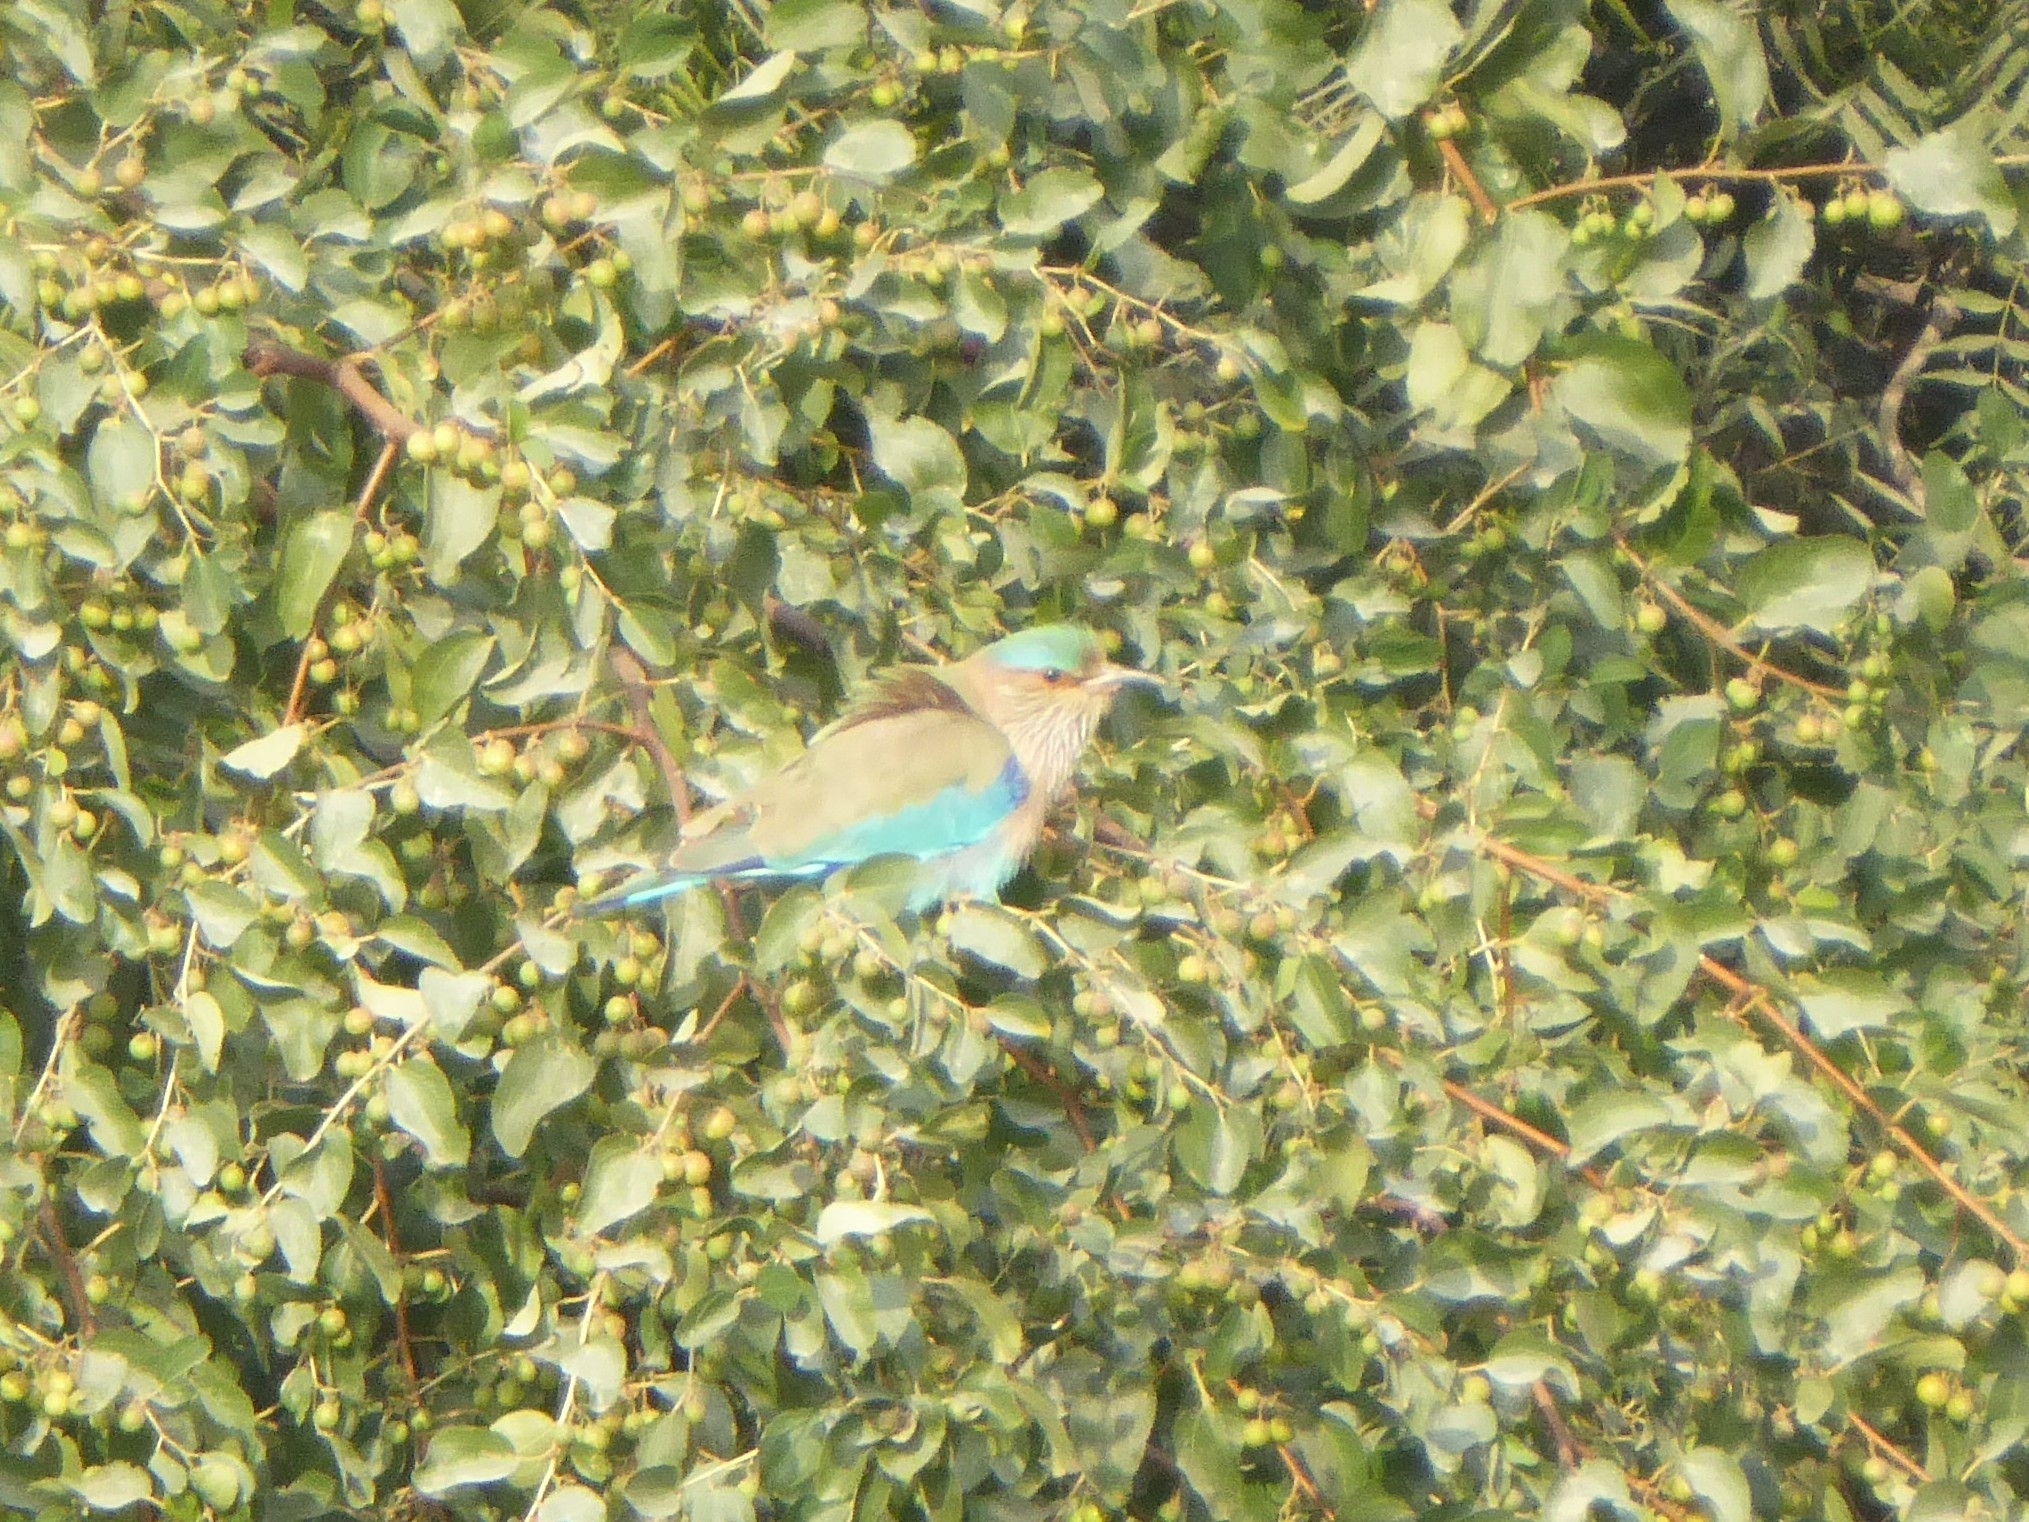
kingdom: Animalia
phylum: Chordata
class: Aves
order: Coraciiformes
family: Coraciidae
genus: Coracias
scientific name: Coracias benghalensis
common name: Indian roller
